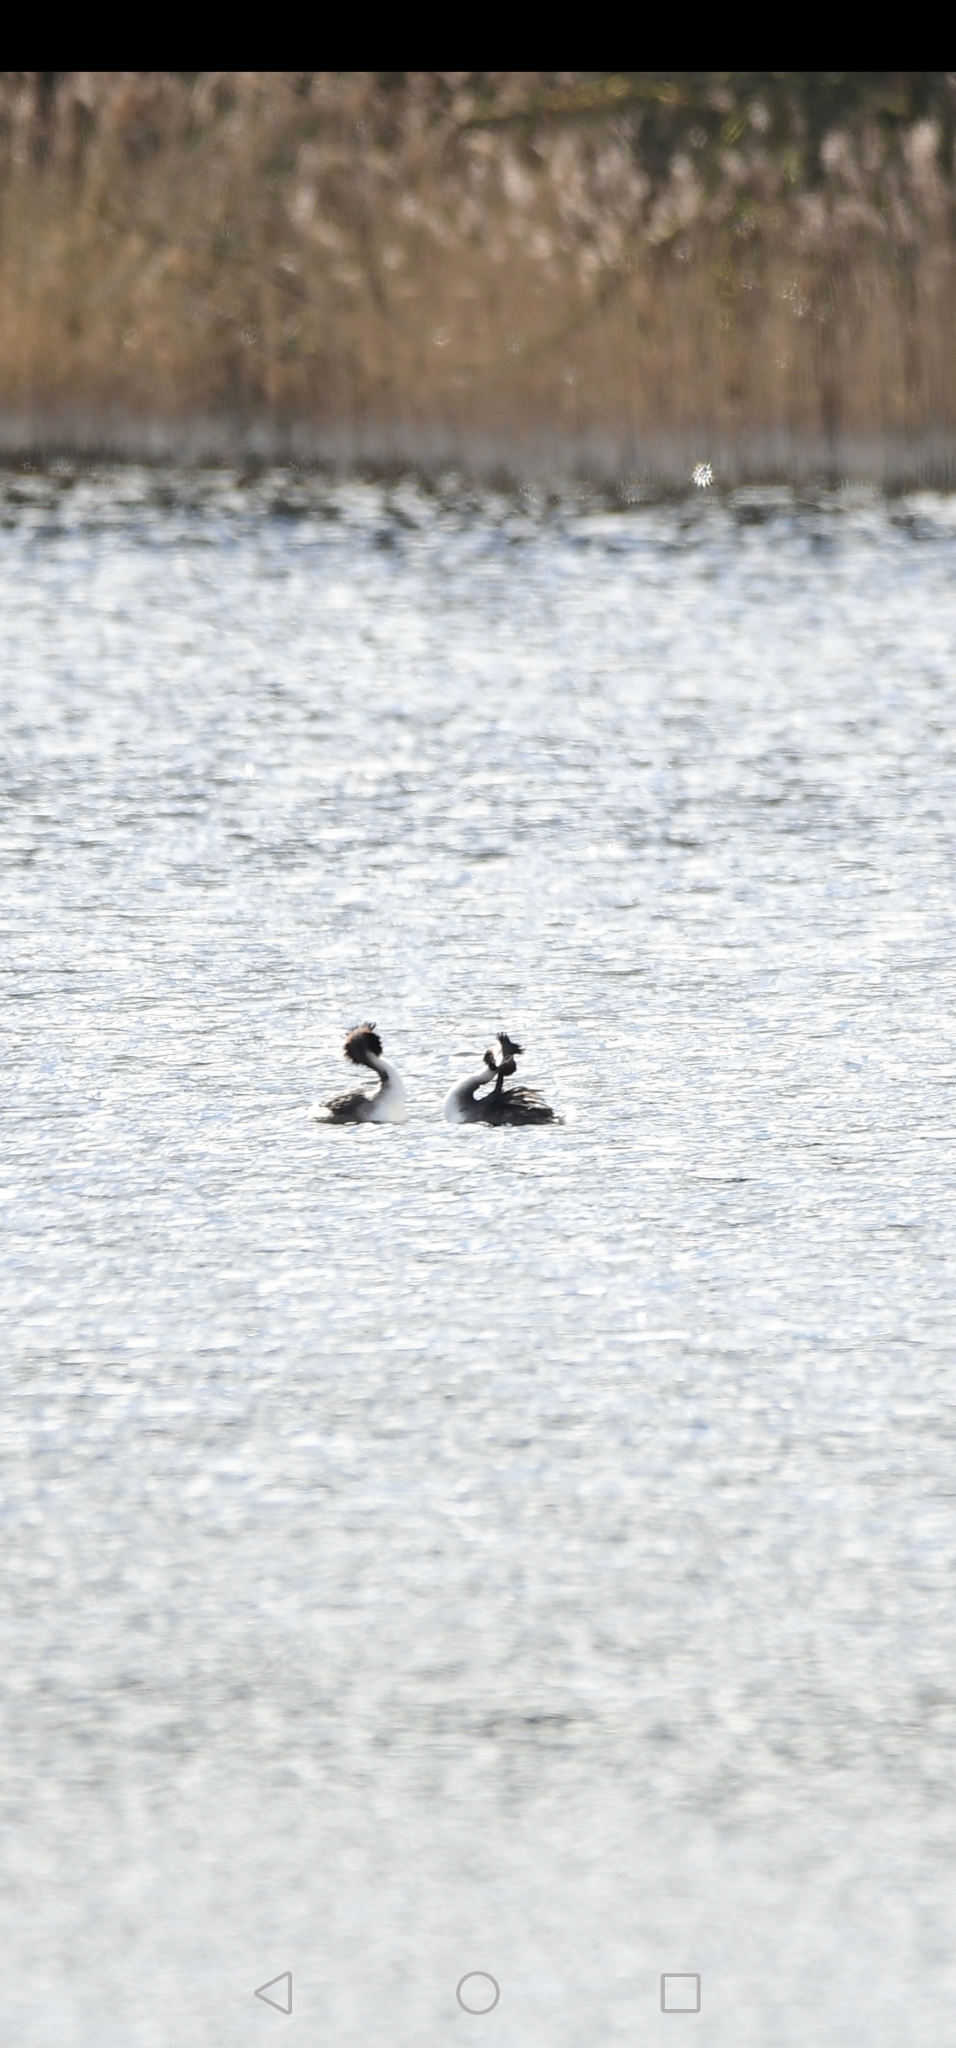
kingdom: Animalia
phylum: Chordata
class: Aves
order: Podicipediformes
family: Podicipedidae
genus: Podiceps
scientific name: Podiceps cristatus
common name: Great crested grebe
